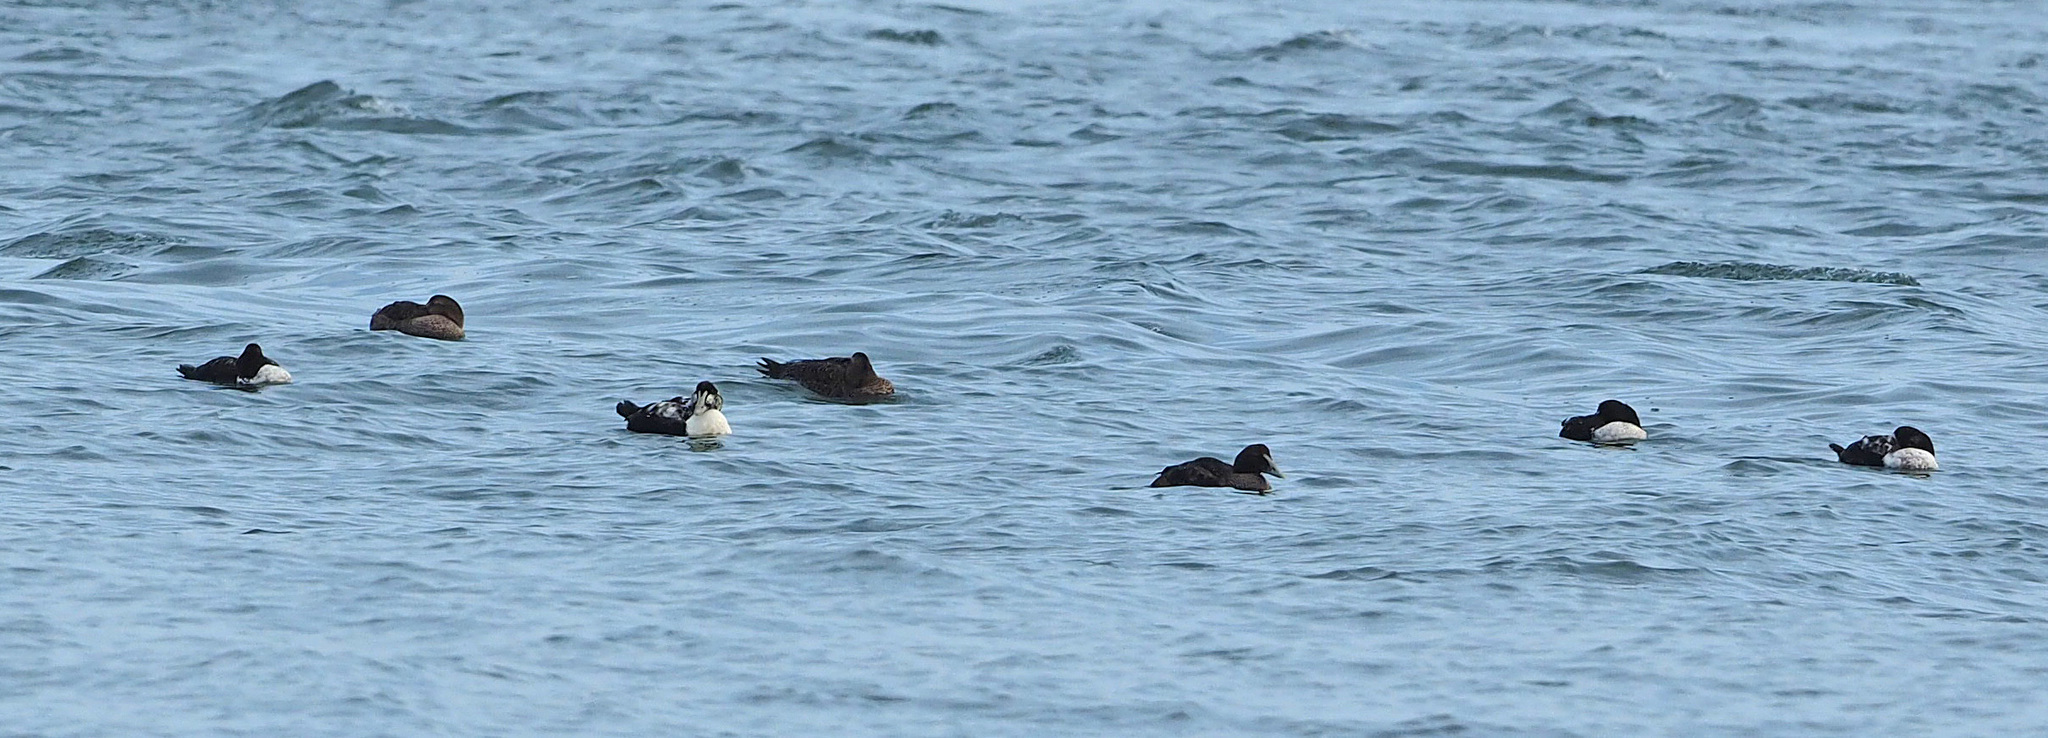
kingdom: Animalia
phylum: Chordata
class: Aves
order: Anseriformes
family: Anatidae
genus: Somateria
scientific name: Somateria mollissima
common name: Common eider
